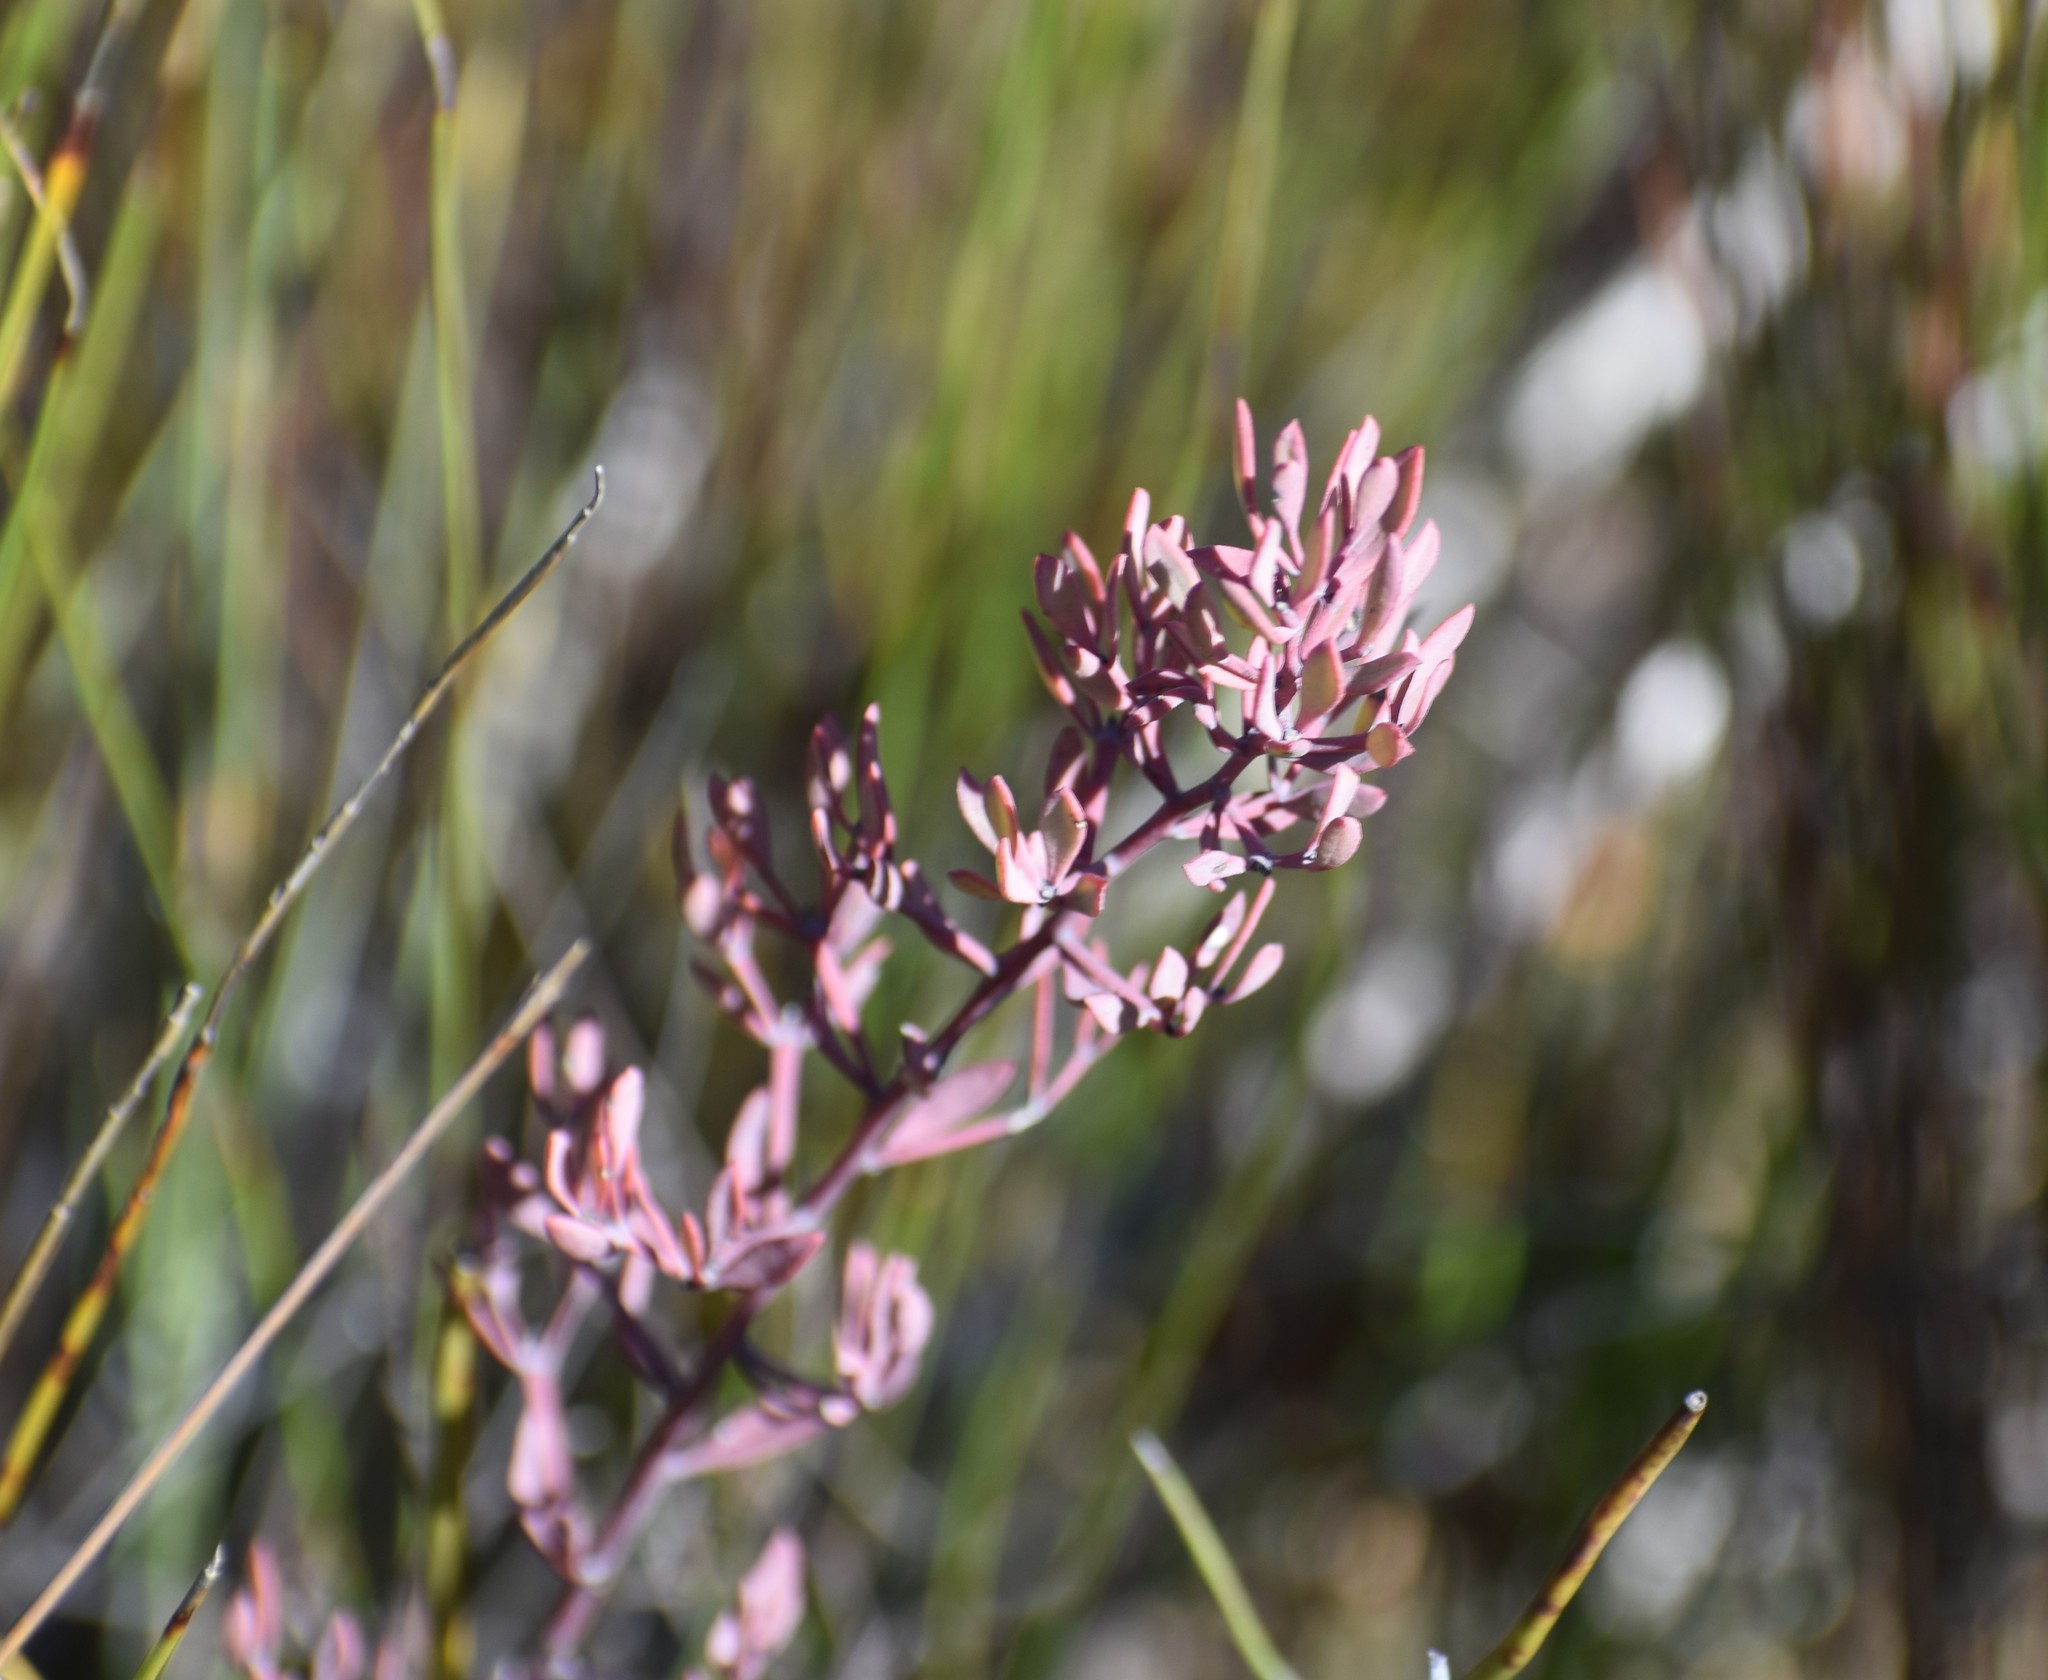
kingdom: Plantae
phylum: Tracheophyta
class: Magnoliopsida
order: Fabales
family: Fabaceae
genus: Rafnia
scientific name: Rafnia capensis
